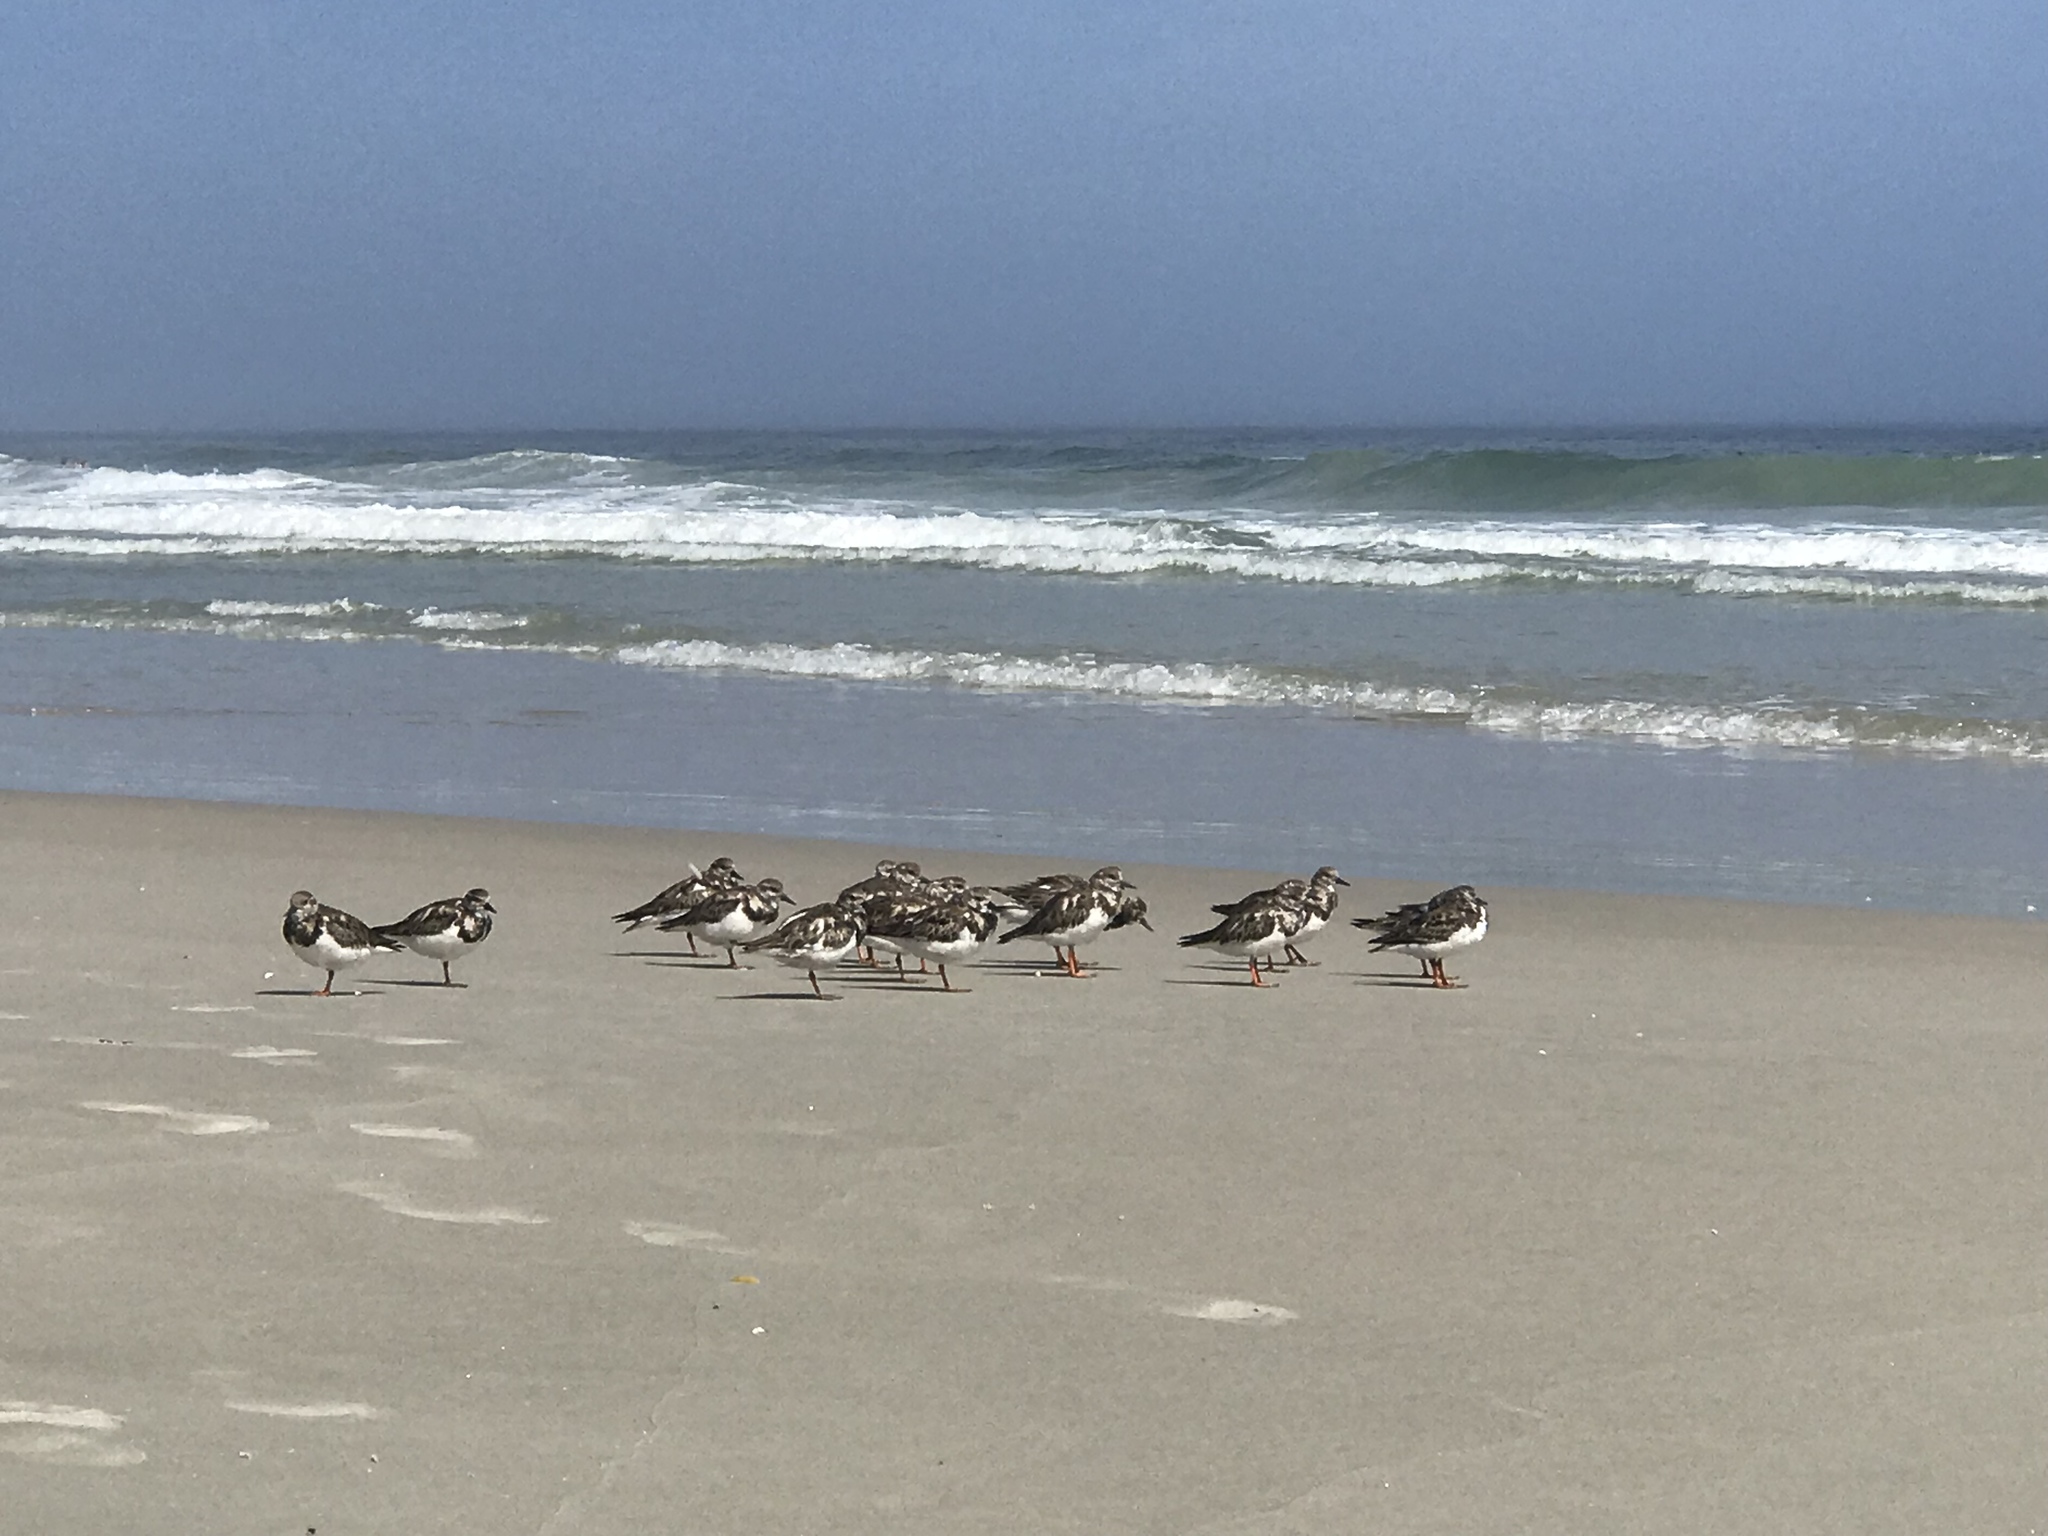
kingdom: Animalia
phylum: Chordata
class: Aves
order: Charadriiformes
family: Scolopacidae
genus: Arenaria
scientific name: Arenaria interpres
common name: Ruddy turnstone
